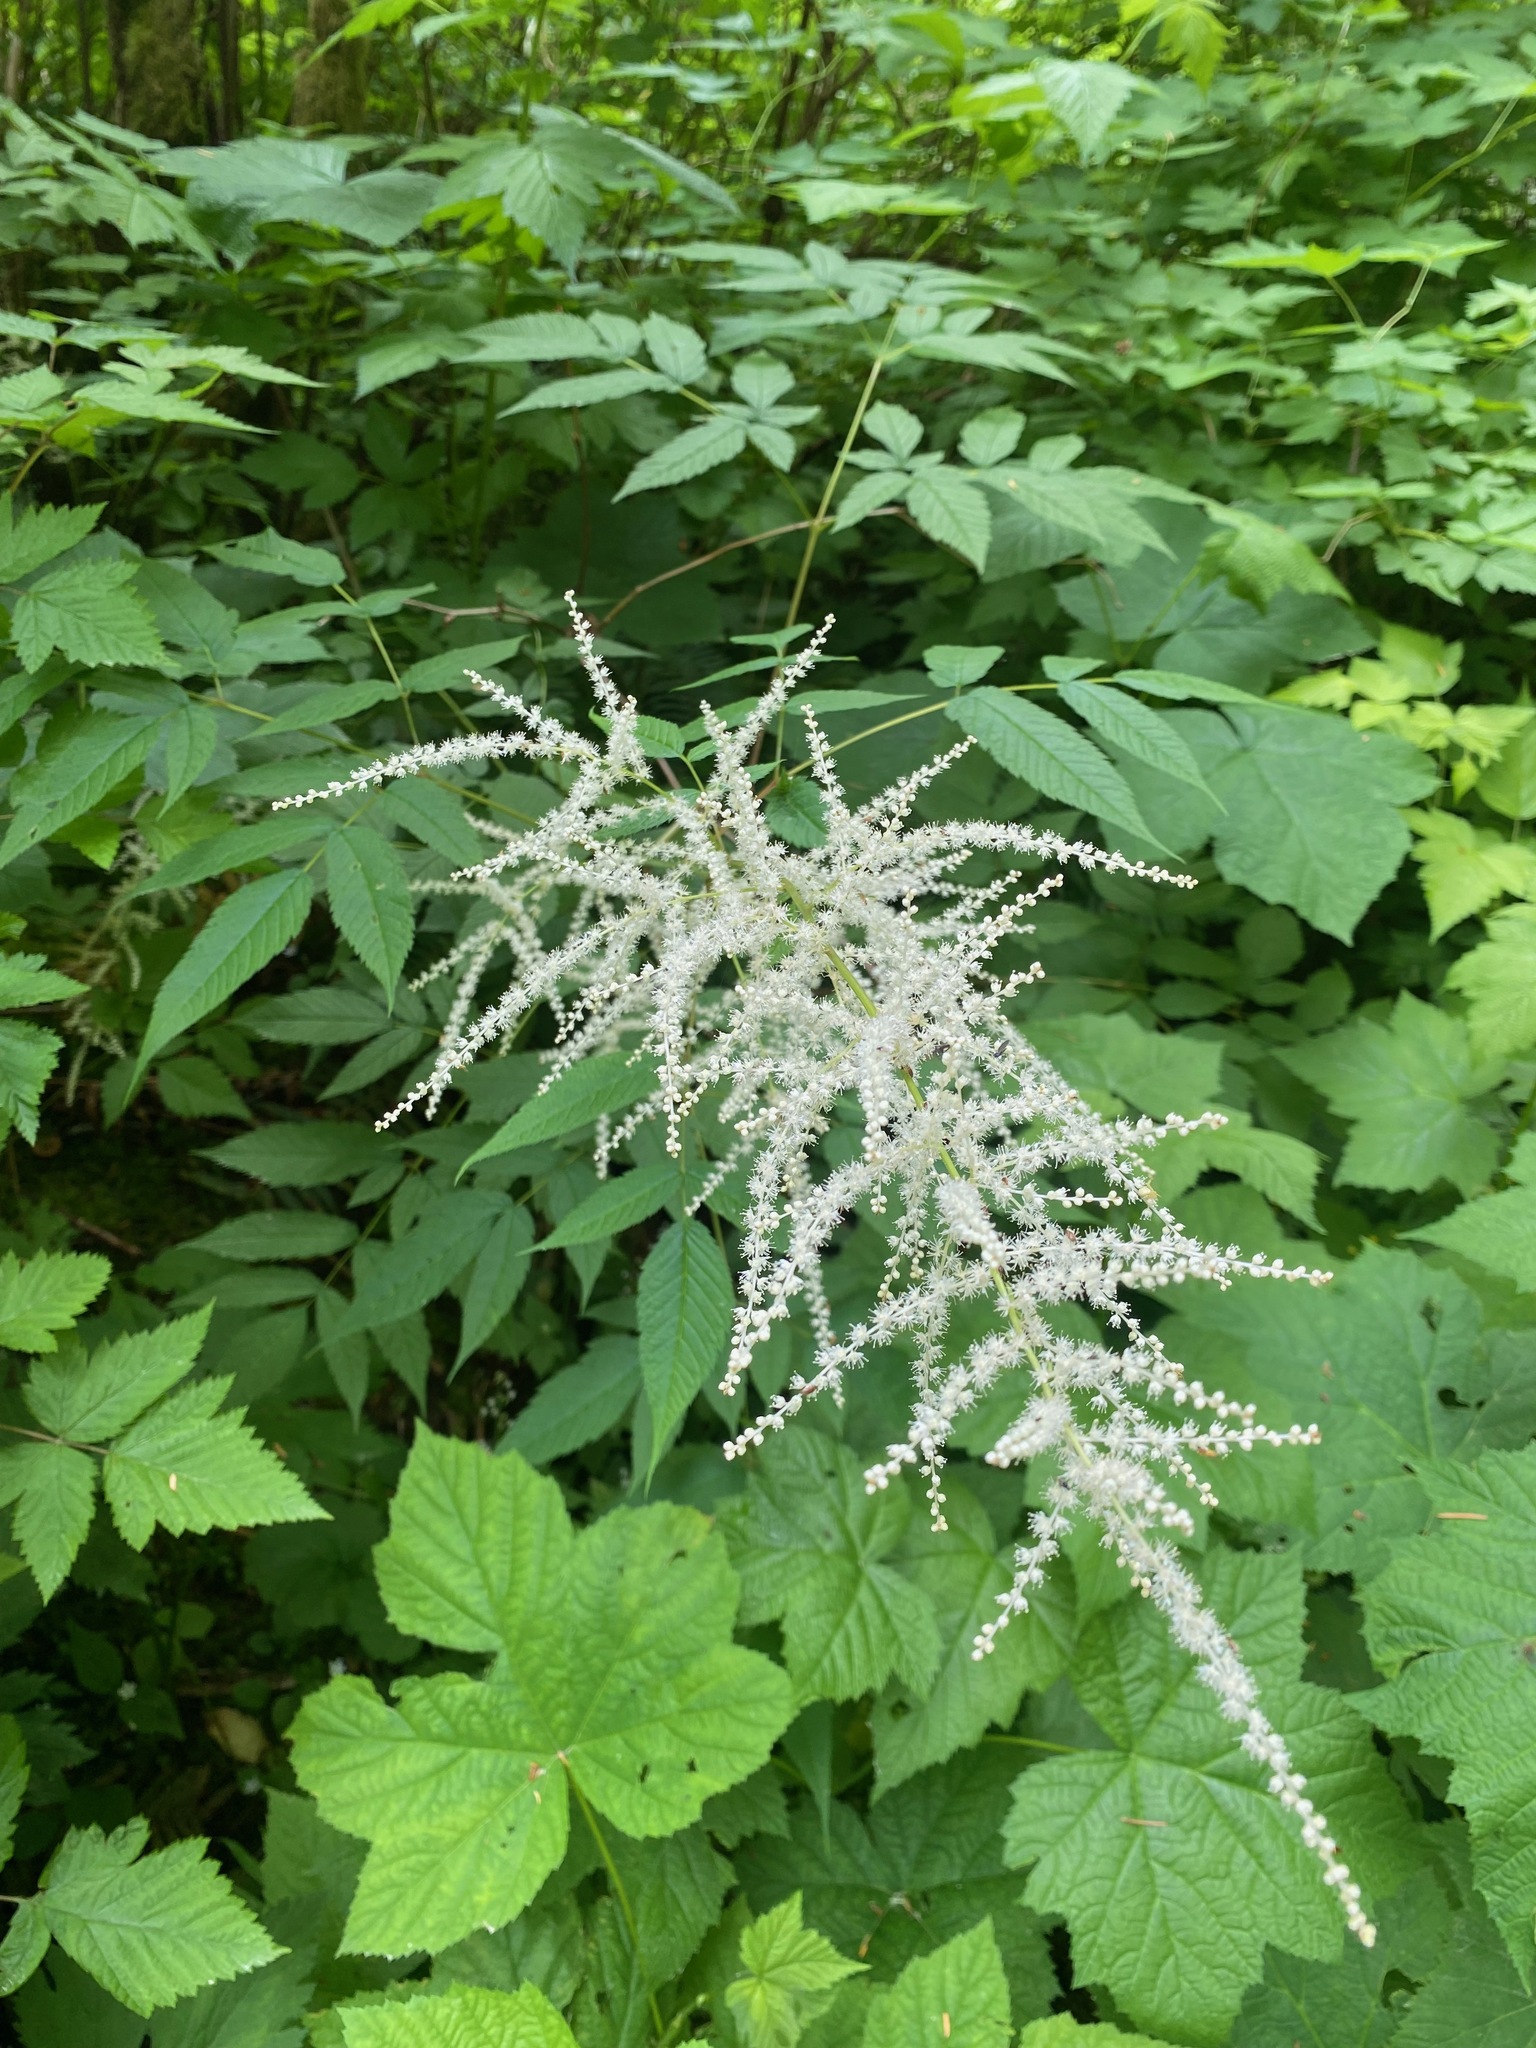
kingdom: Plantae
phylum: Tracheophyta
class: Magnoliopsida
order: Rosales
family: Rosaceae
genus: Aruncus
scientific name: Aruncus dioicus
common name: Buck's-beard
